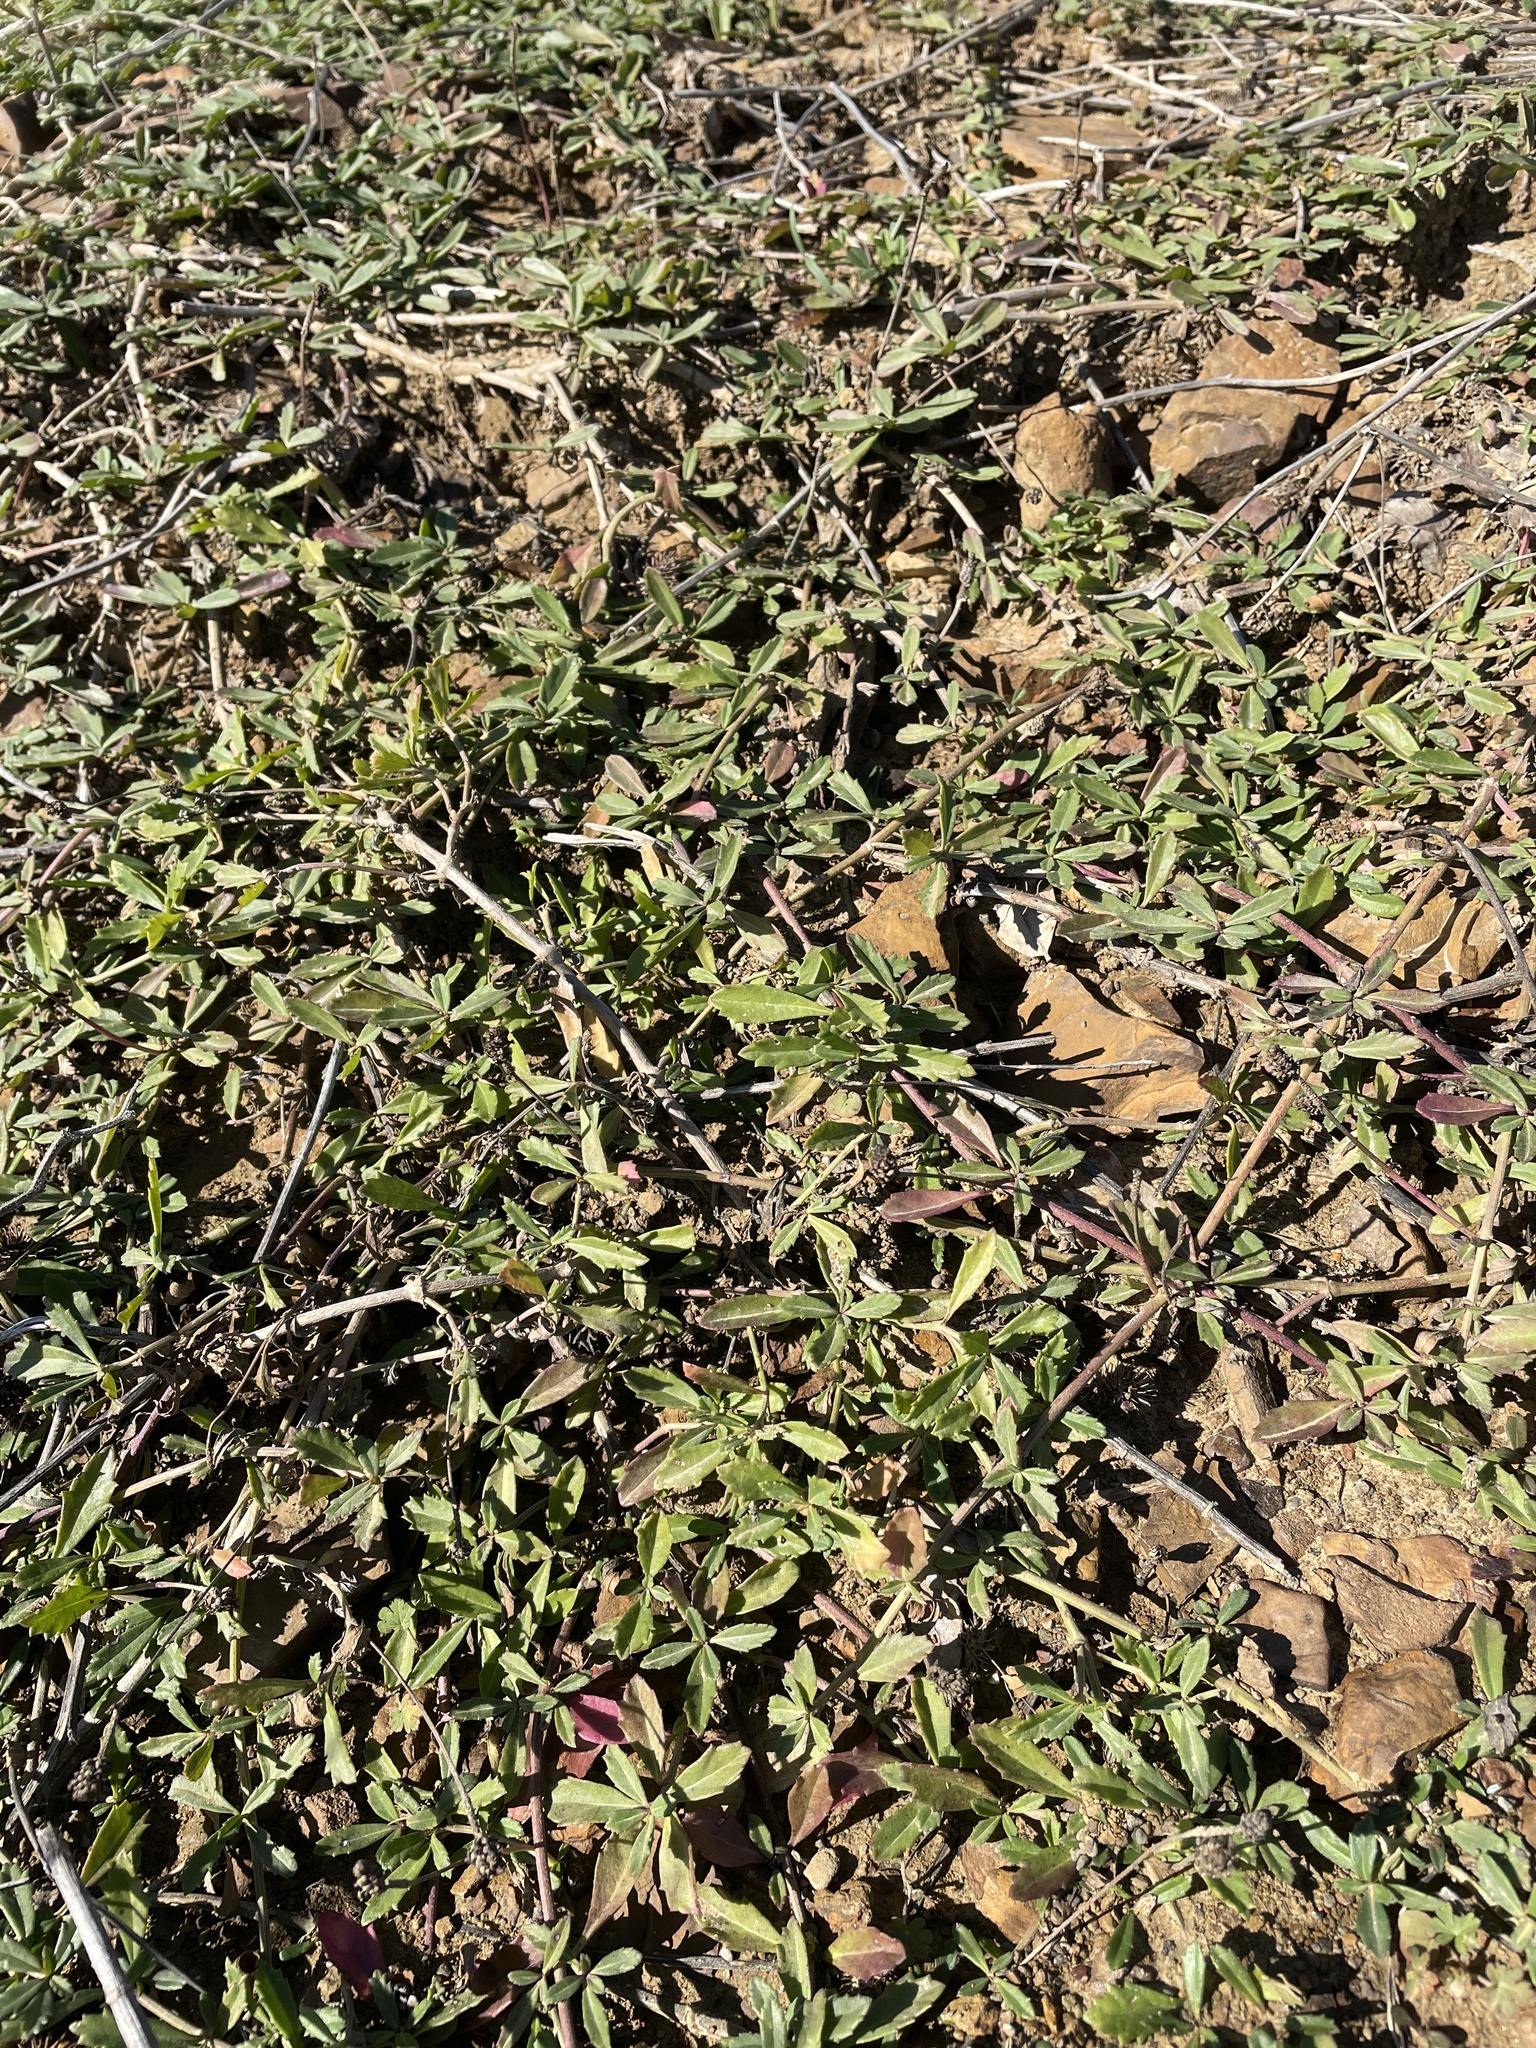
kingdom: Plantae
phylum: Tracheophyta
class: Magnoliopsida
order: Lamiales
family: Verbenaceae
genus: Phyla
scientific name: Phyla nodiflora
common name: Frogfruit
